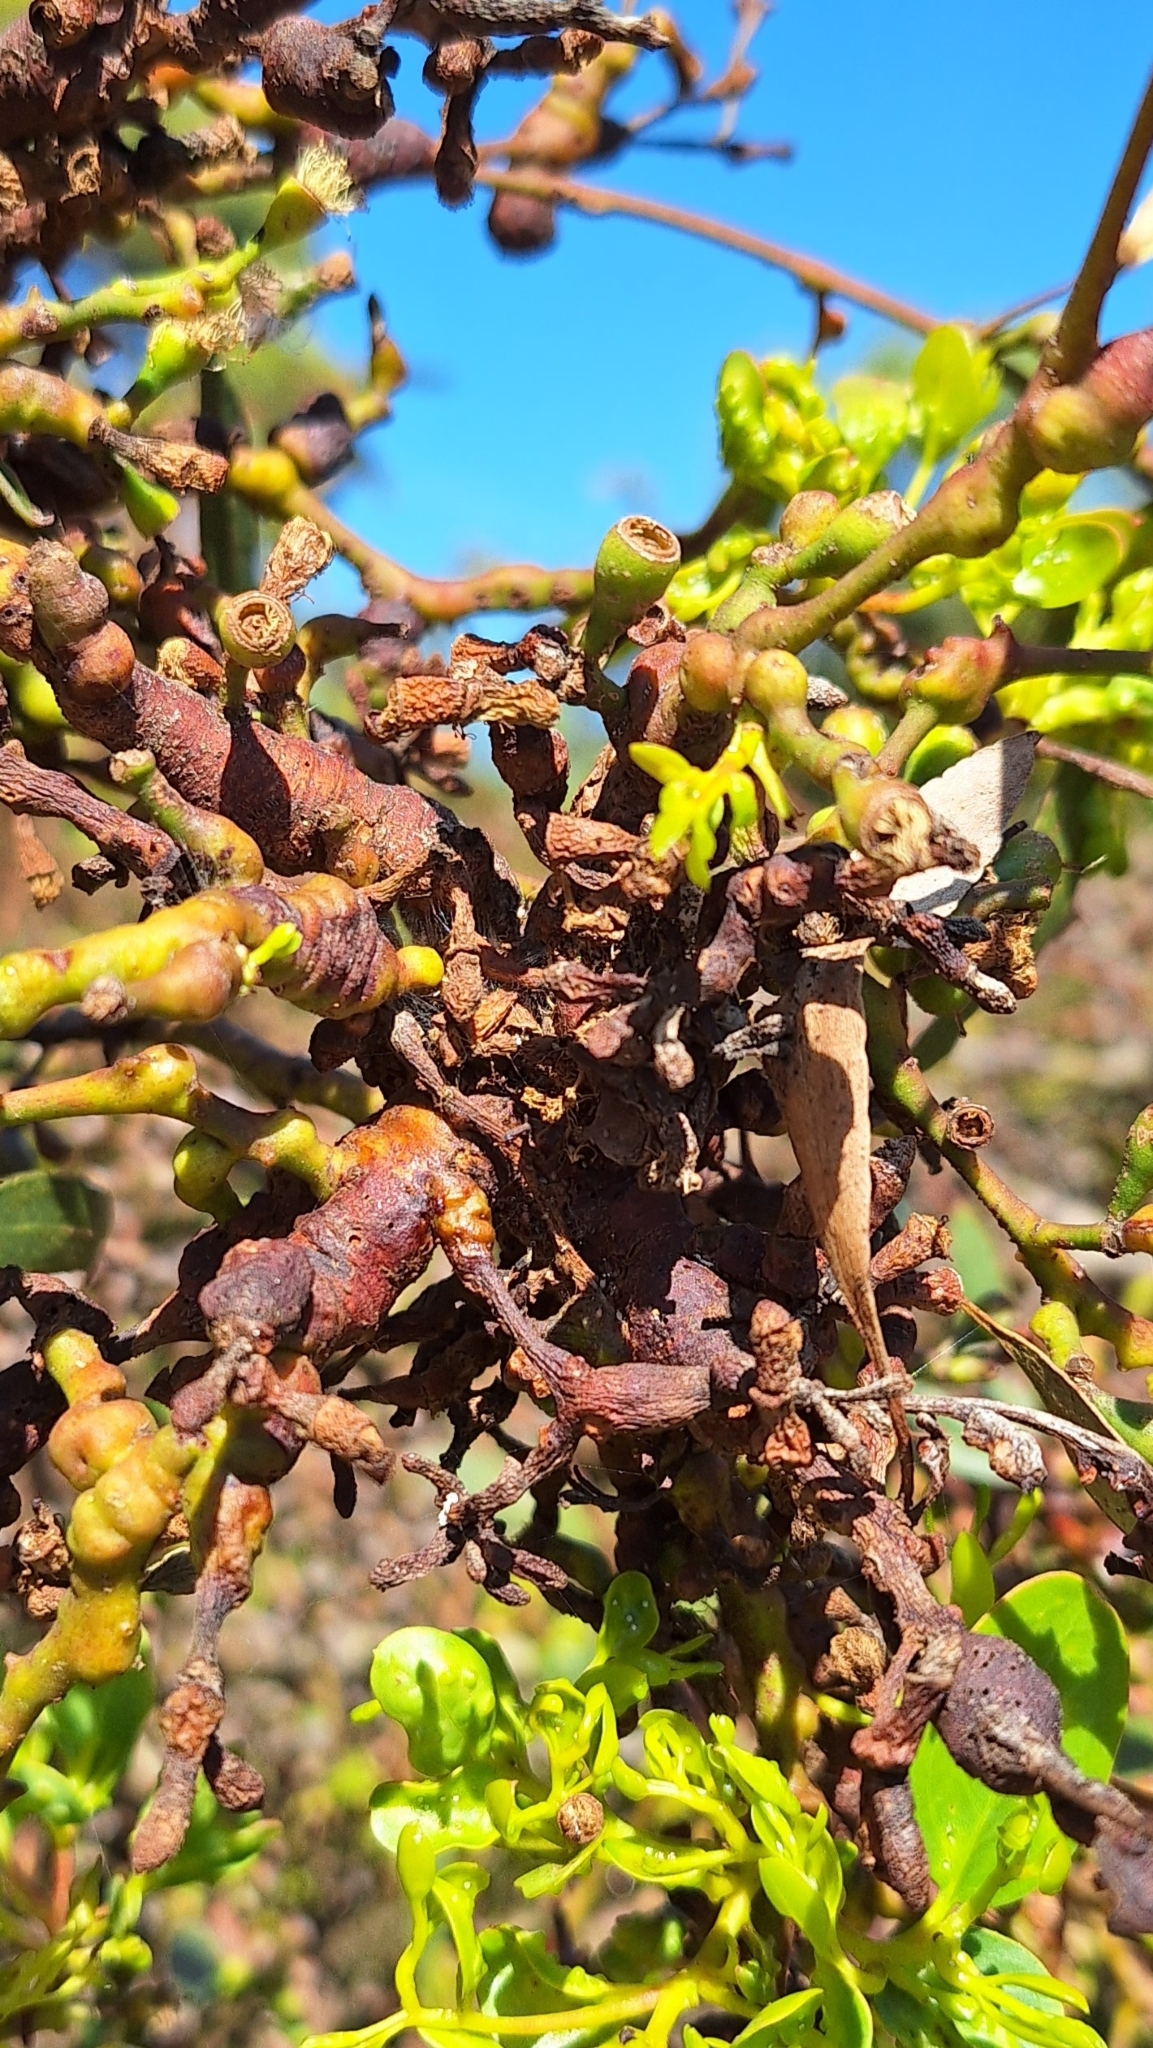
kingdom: Animalia
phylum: Arthropoda
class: Insecta
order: Hemiptera
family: Diaspididae
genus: Maskellia
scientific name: Maskellia globosa
